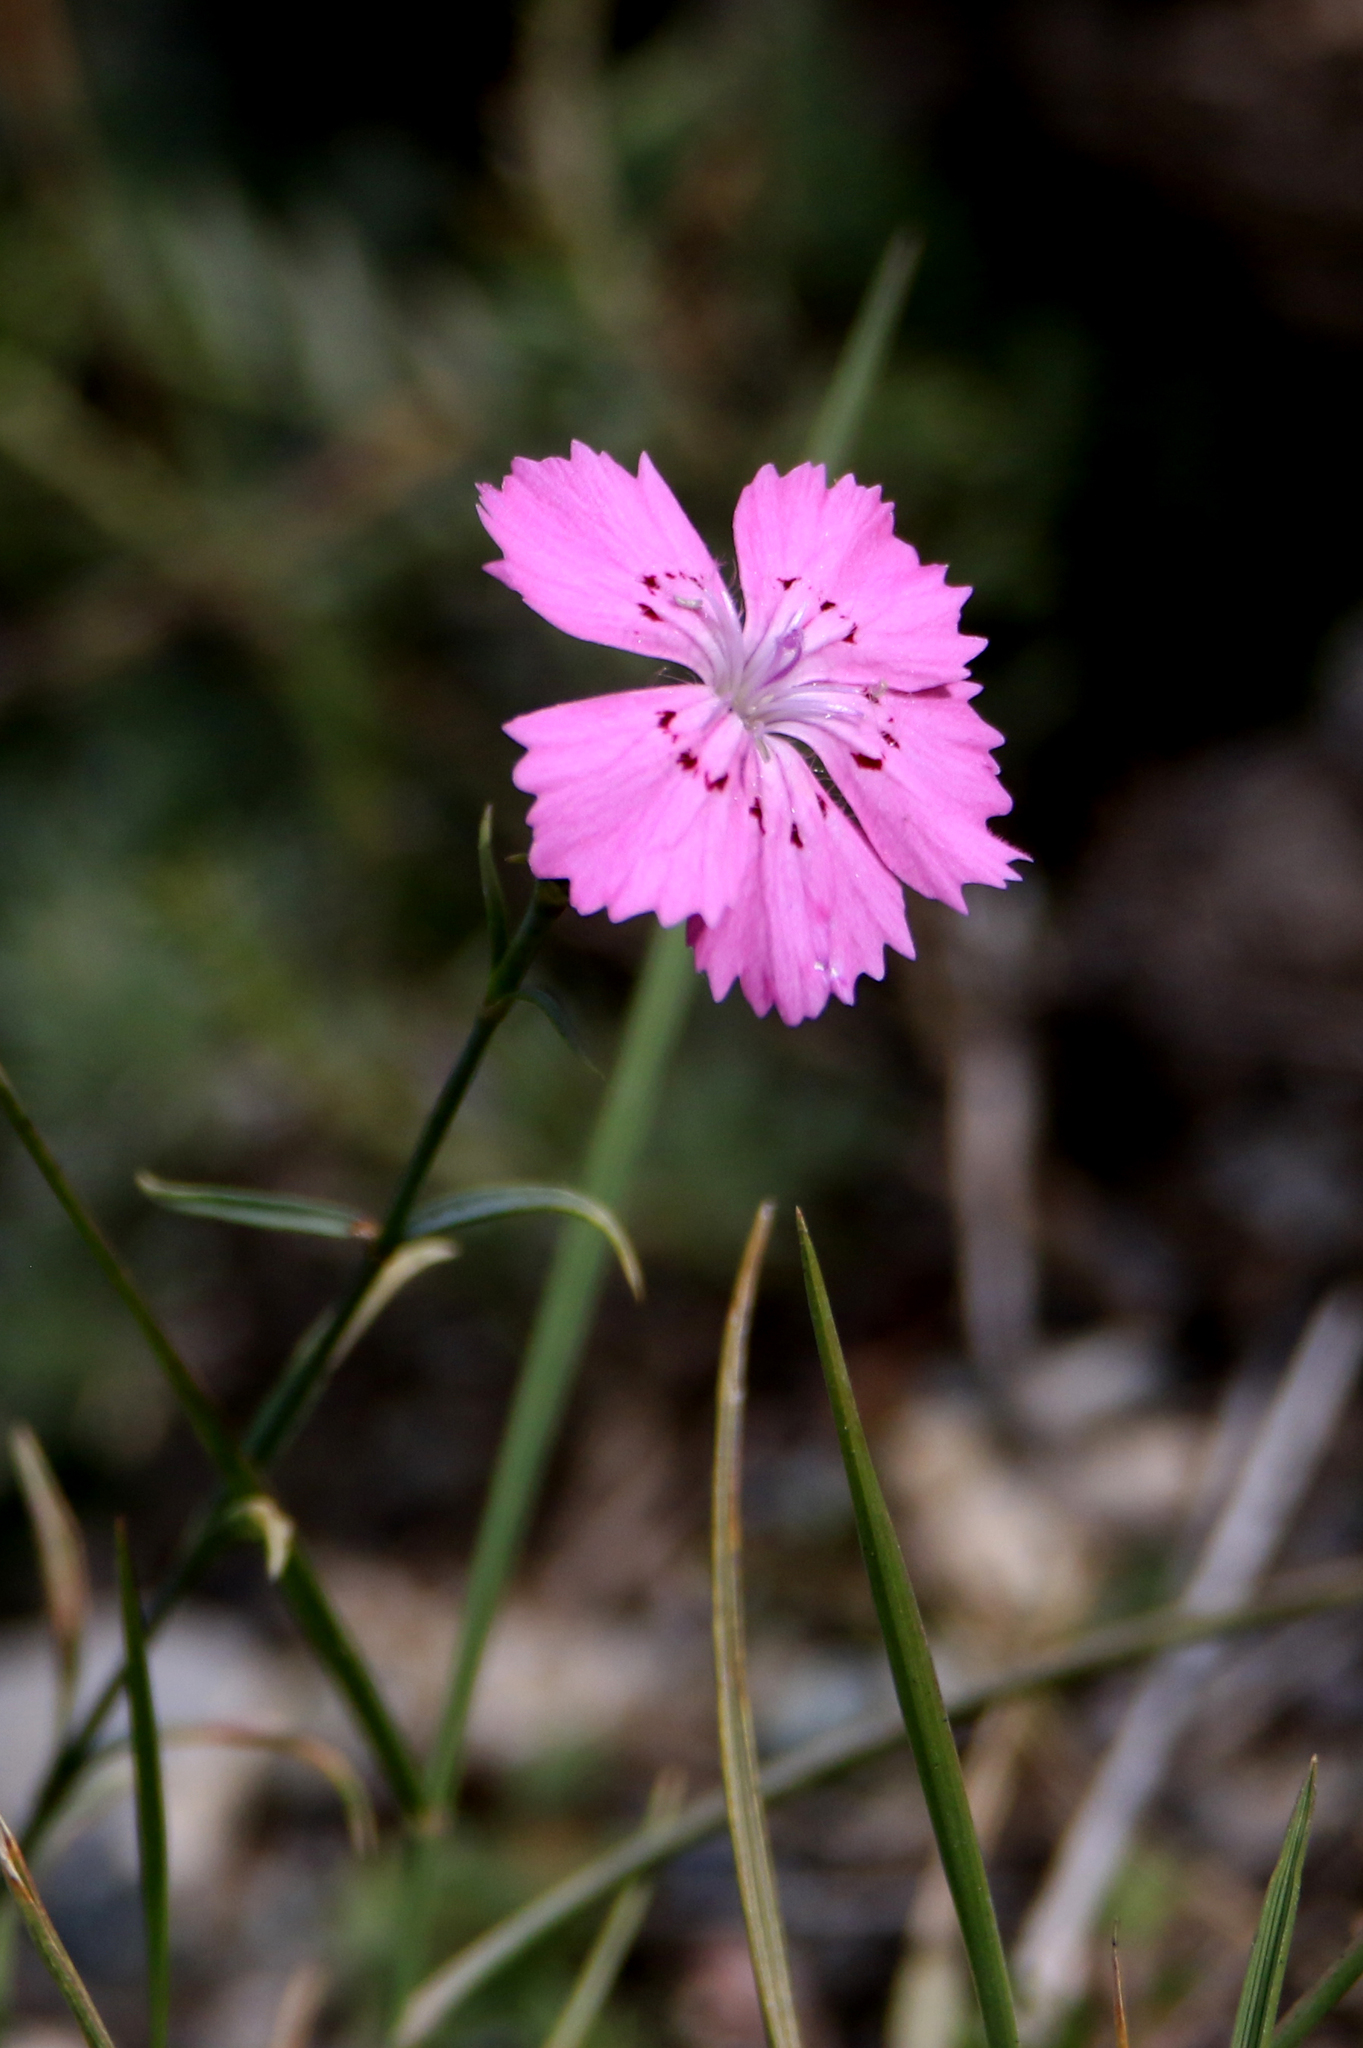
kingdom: Plantae
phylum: Tracheophyta
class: Magnoliopsida
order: Caryophyllales
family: Caryophyllaceae
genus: Dianthus
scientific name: Dianthus chinensis
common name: Rainbow pink
